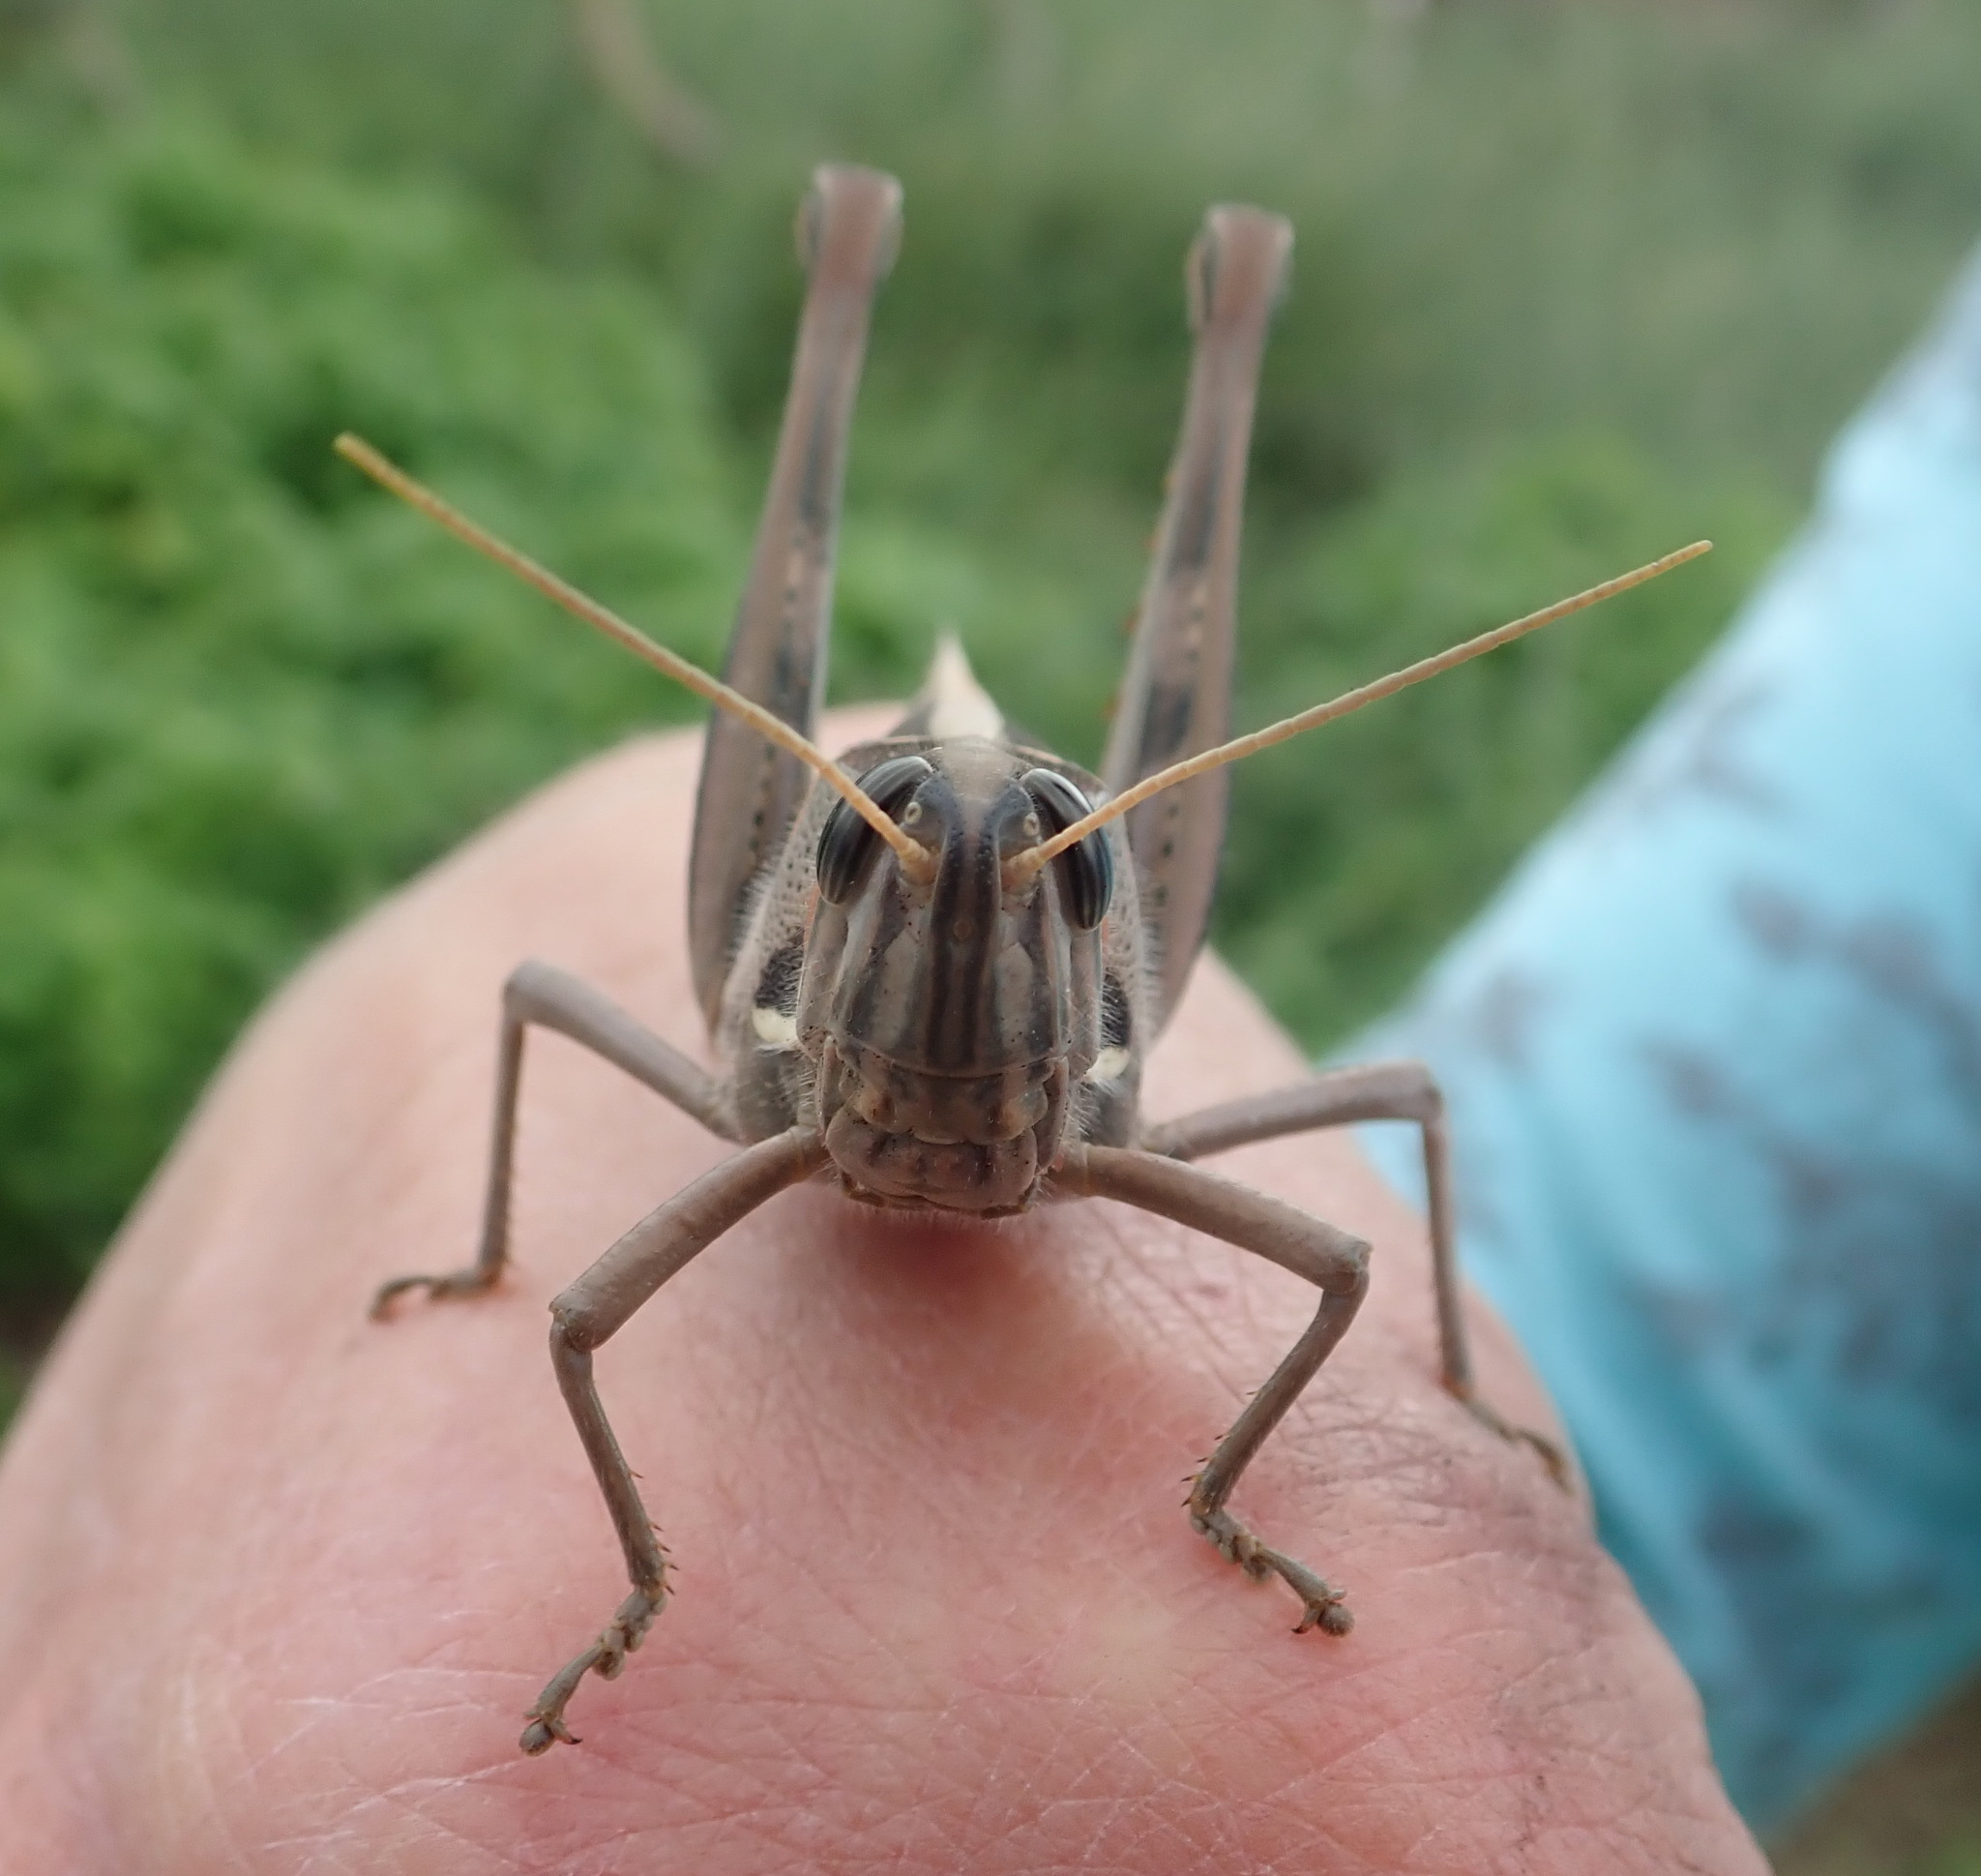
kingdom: Animalia
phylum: Arthropoda
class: Insecta
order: Orthoptera
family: Acrididae
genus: Cyrtacanthacris
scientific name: Cyrtacanthacris tatarica
